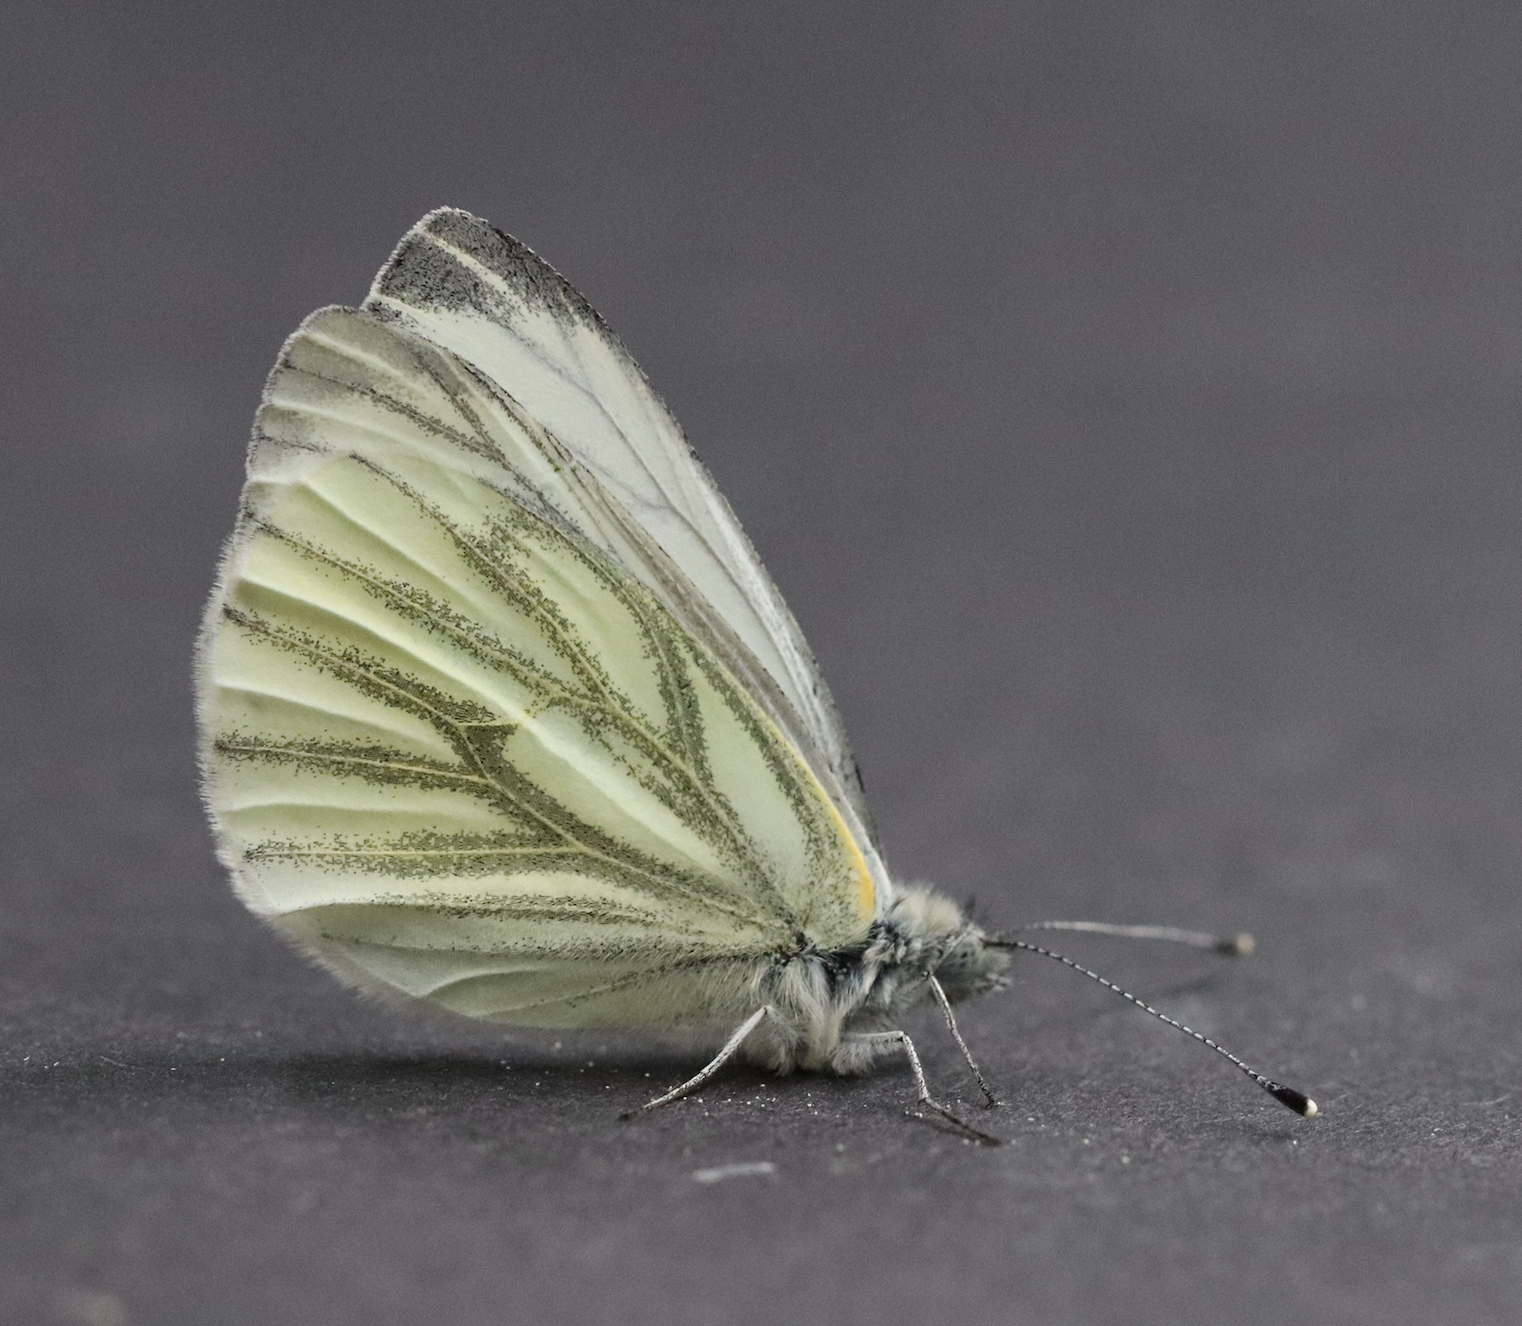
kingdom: Animalia
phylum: Arthropoda
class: Insecta
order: Lepidoptera
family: Pieridae
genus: Pieris
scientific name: Pieris napi
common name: Green-veined white
